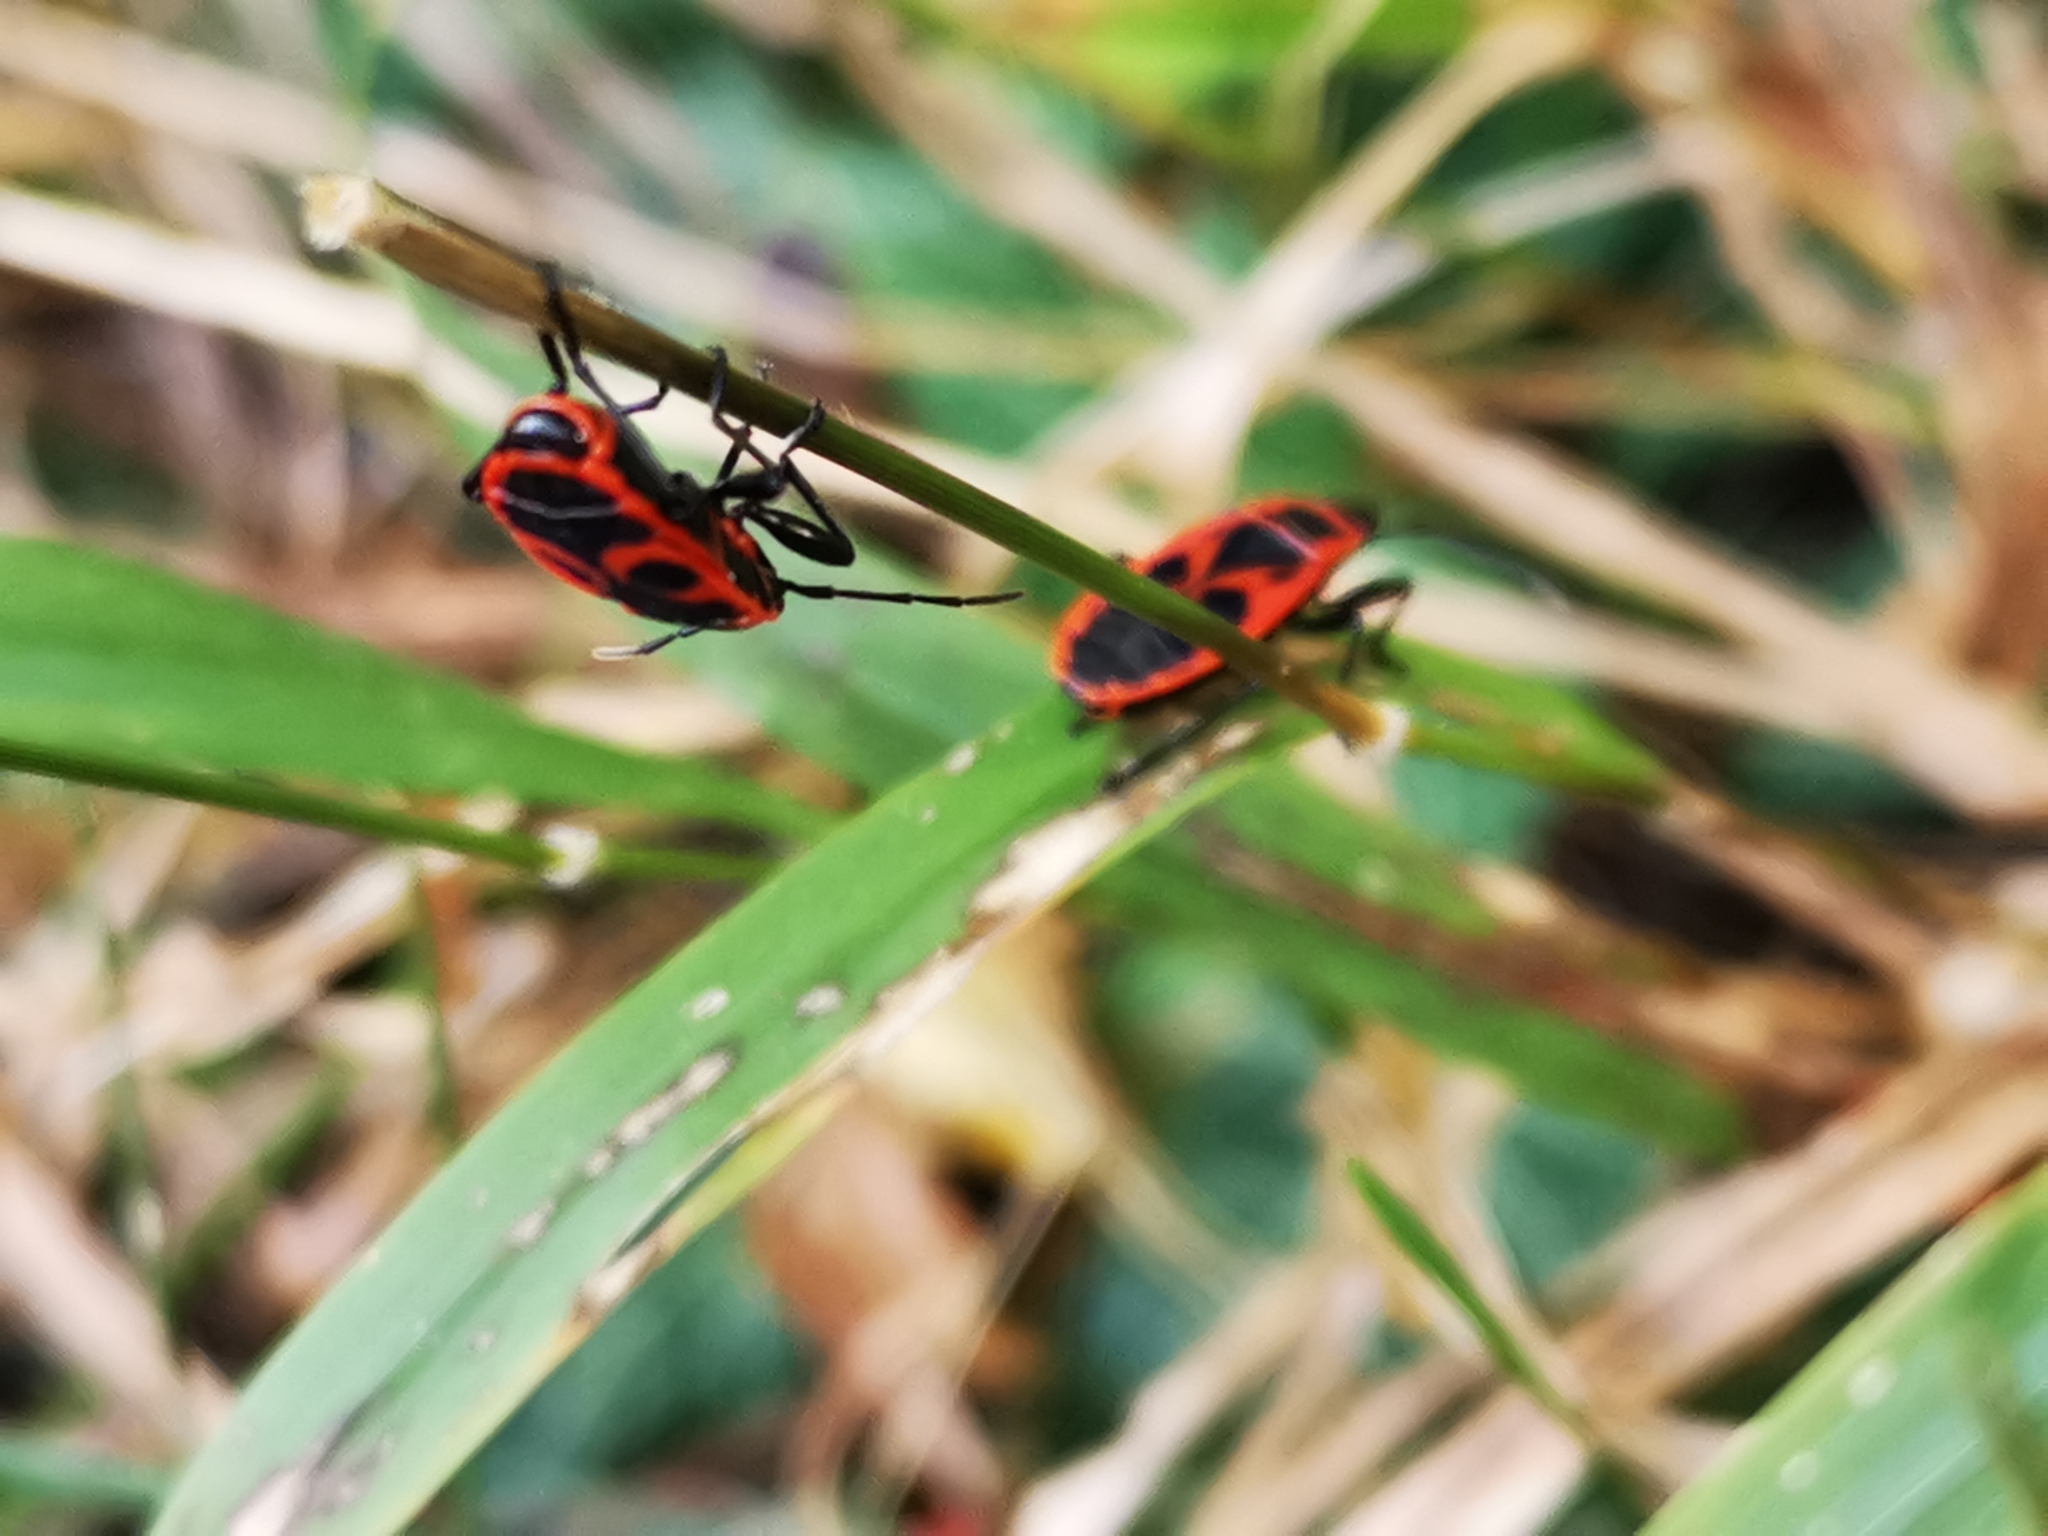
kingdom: Animalia
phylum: Arthropoda
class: Insecta
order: Hemiptera
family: Pyrrhocoridae
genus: Pyrrhocoris
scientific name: Pyrrhocoris apterus
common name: Firebug
